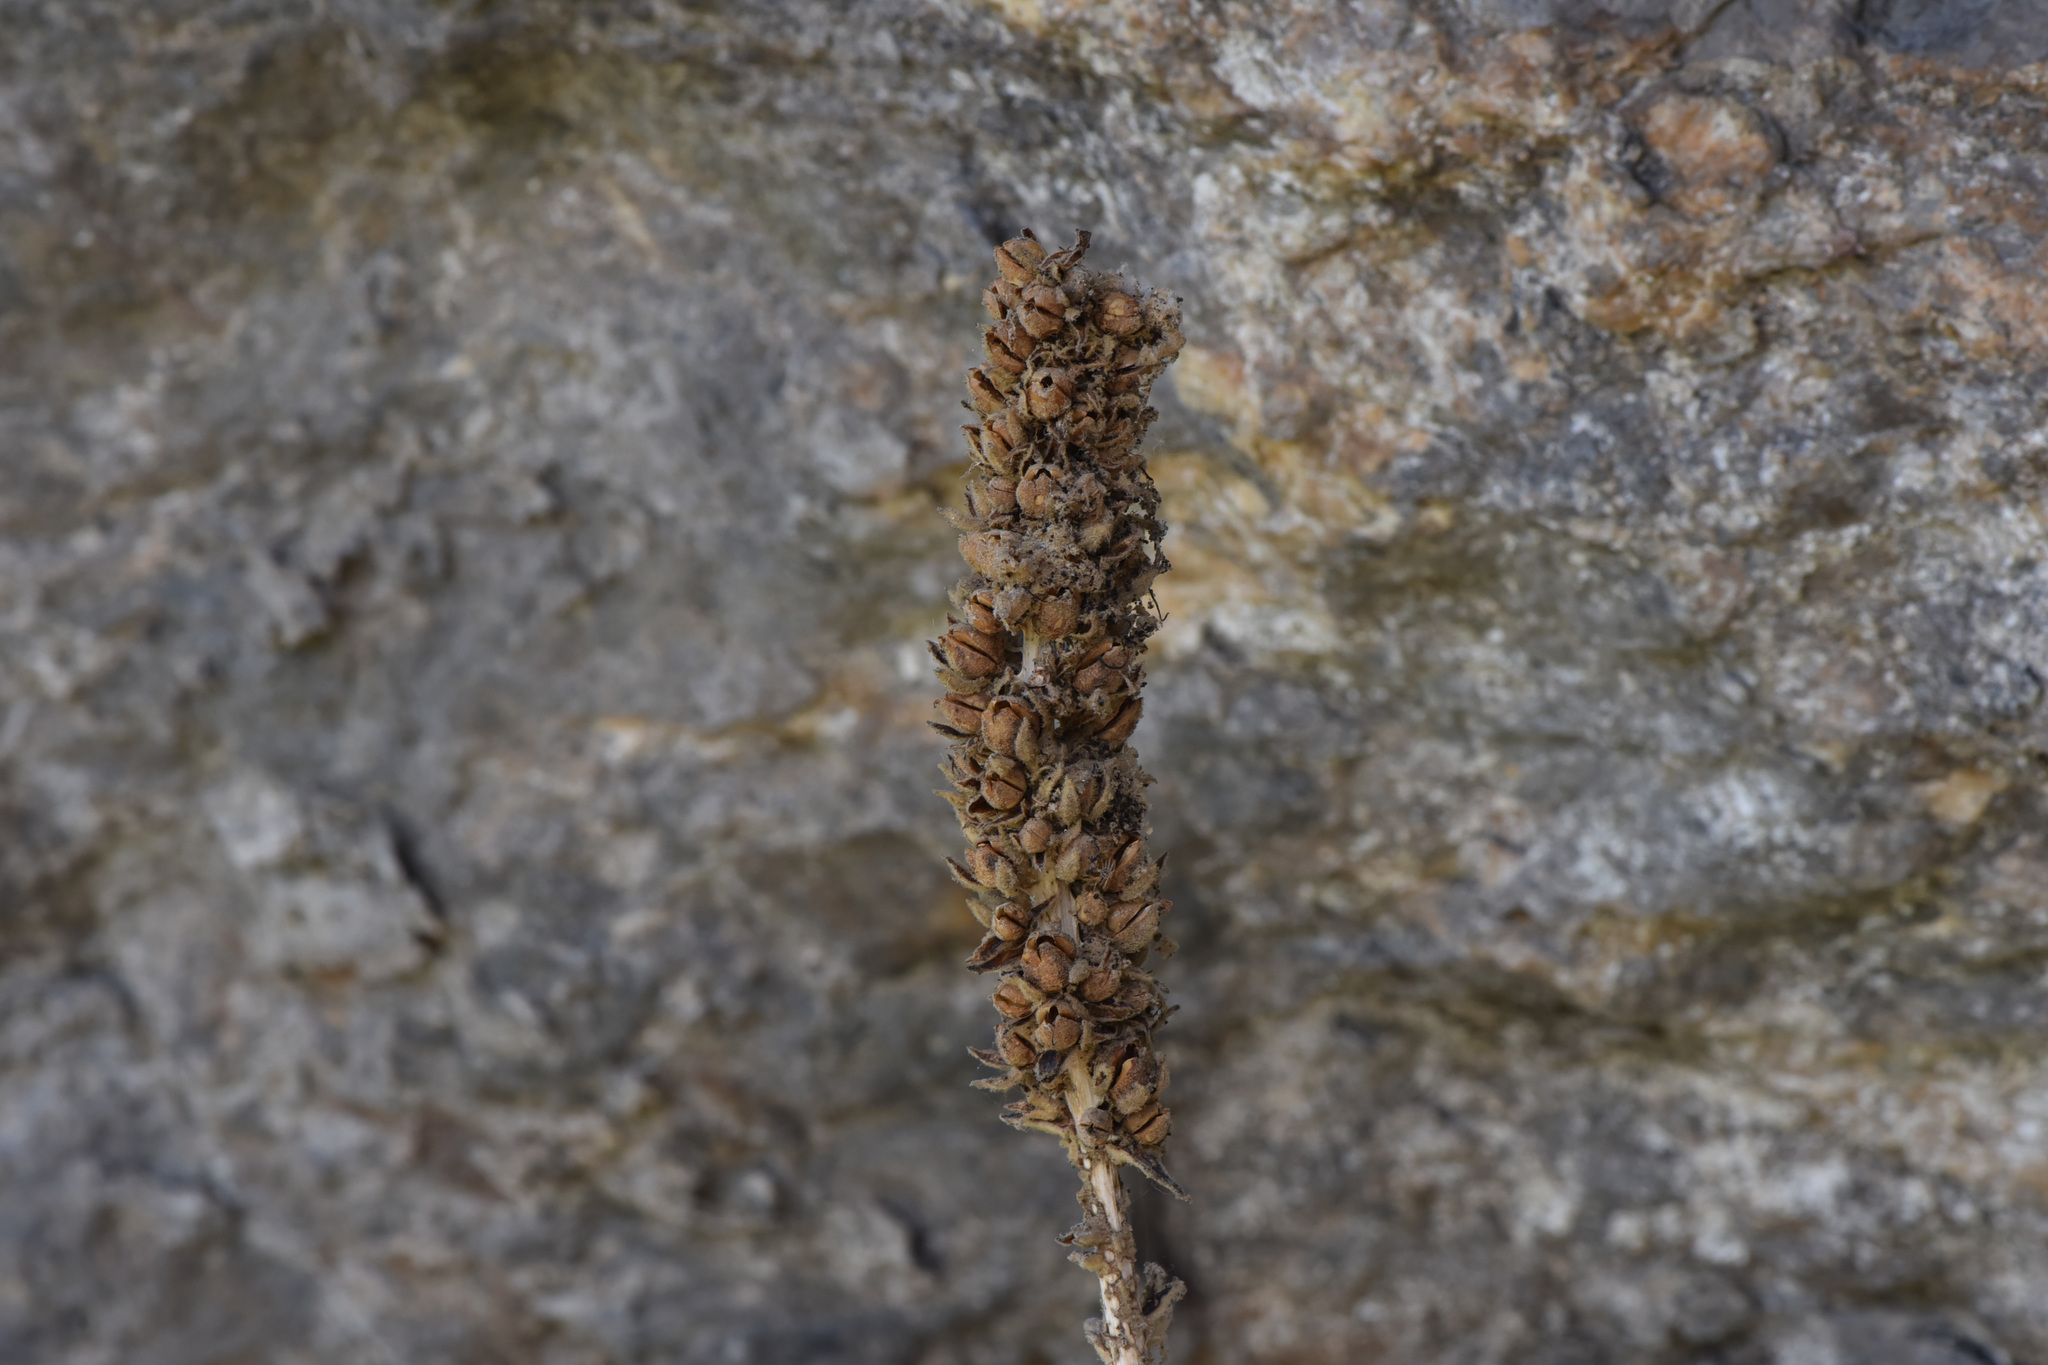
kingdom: Plantae
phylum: Tracheophyta
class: Magnoliopsida
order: Lamiales
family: Scrophulariaceae
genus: Verbascum
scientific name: Verbascum thapsus
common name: Common mullein
